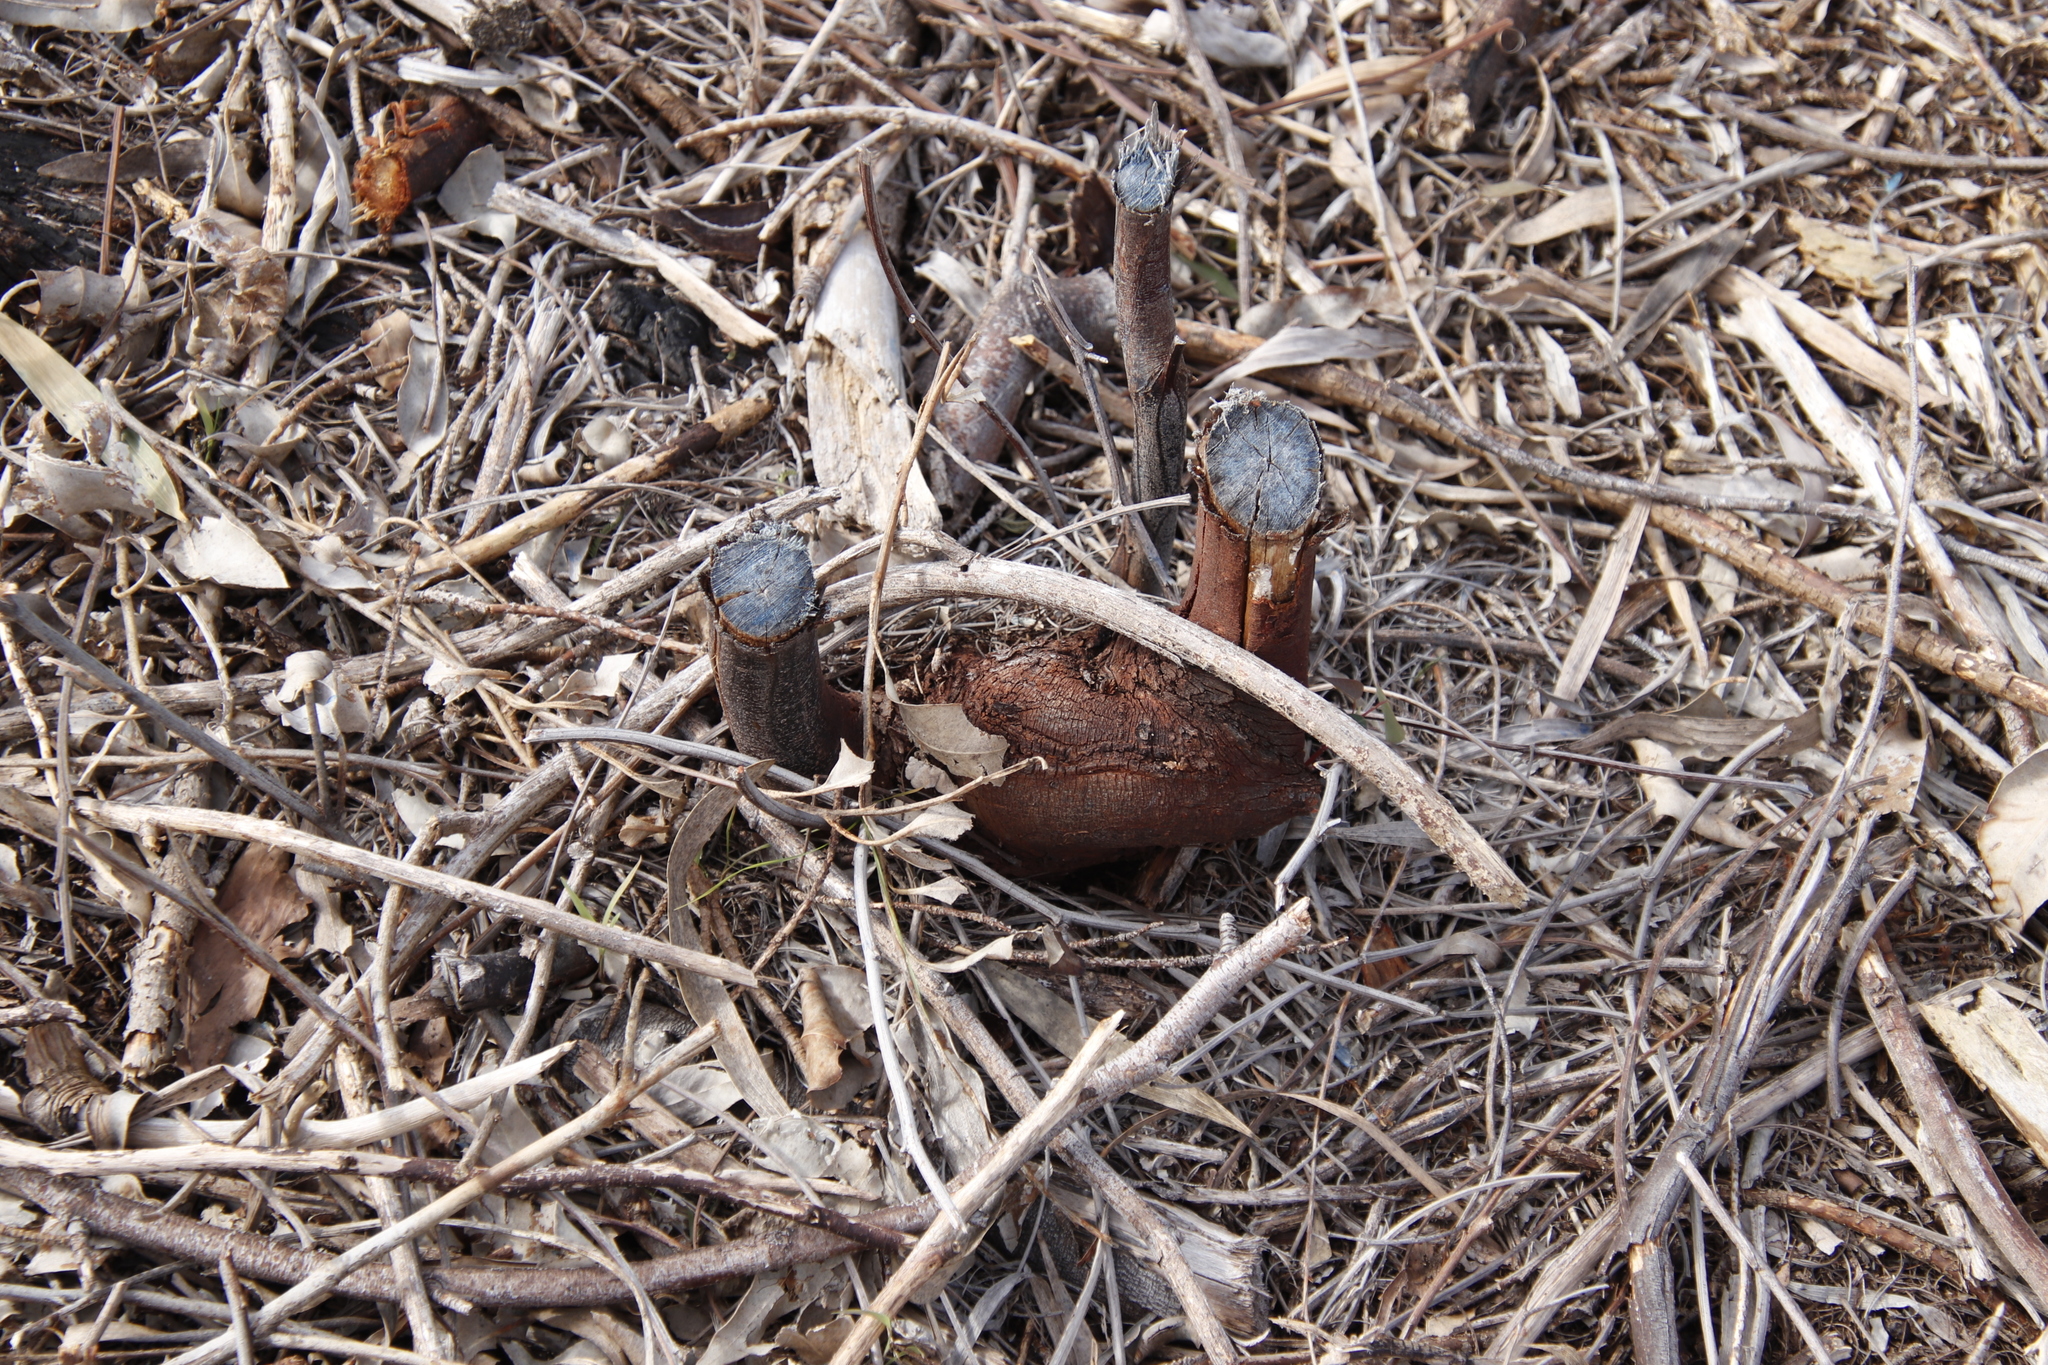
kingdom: Plantae
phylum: Tracheophyta
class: Magnoliopsida
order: Fabales
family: Fabaceae
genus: Acacia
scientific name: Acacia longifolia
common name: Sydney golden wattle
